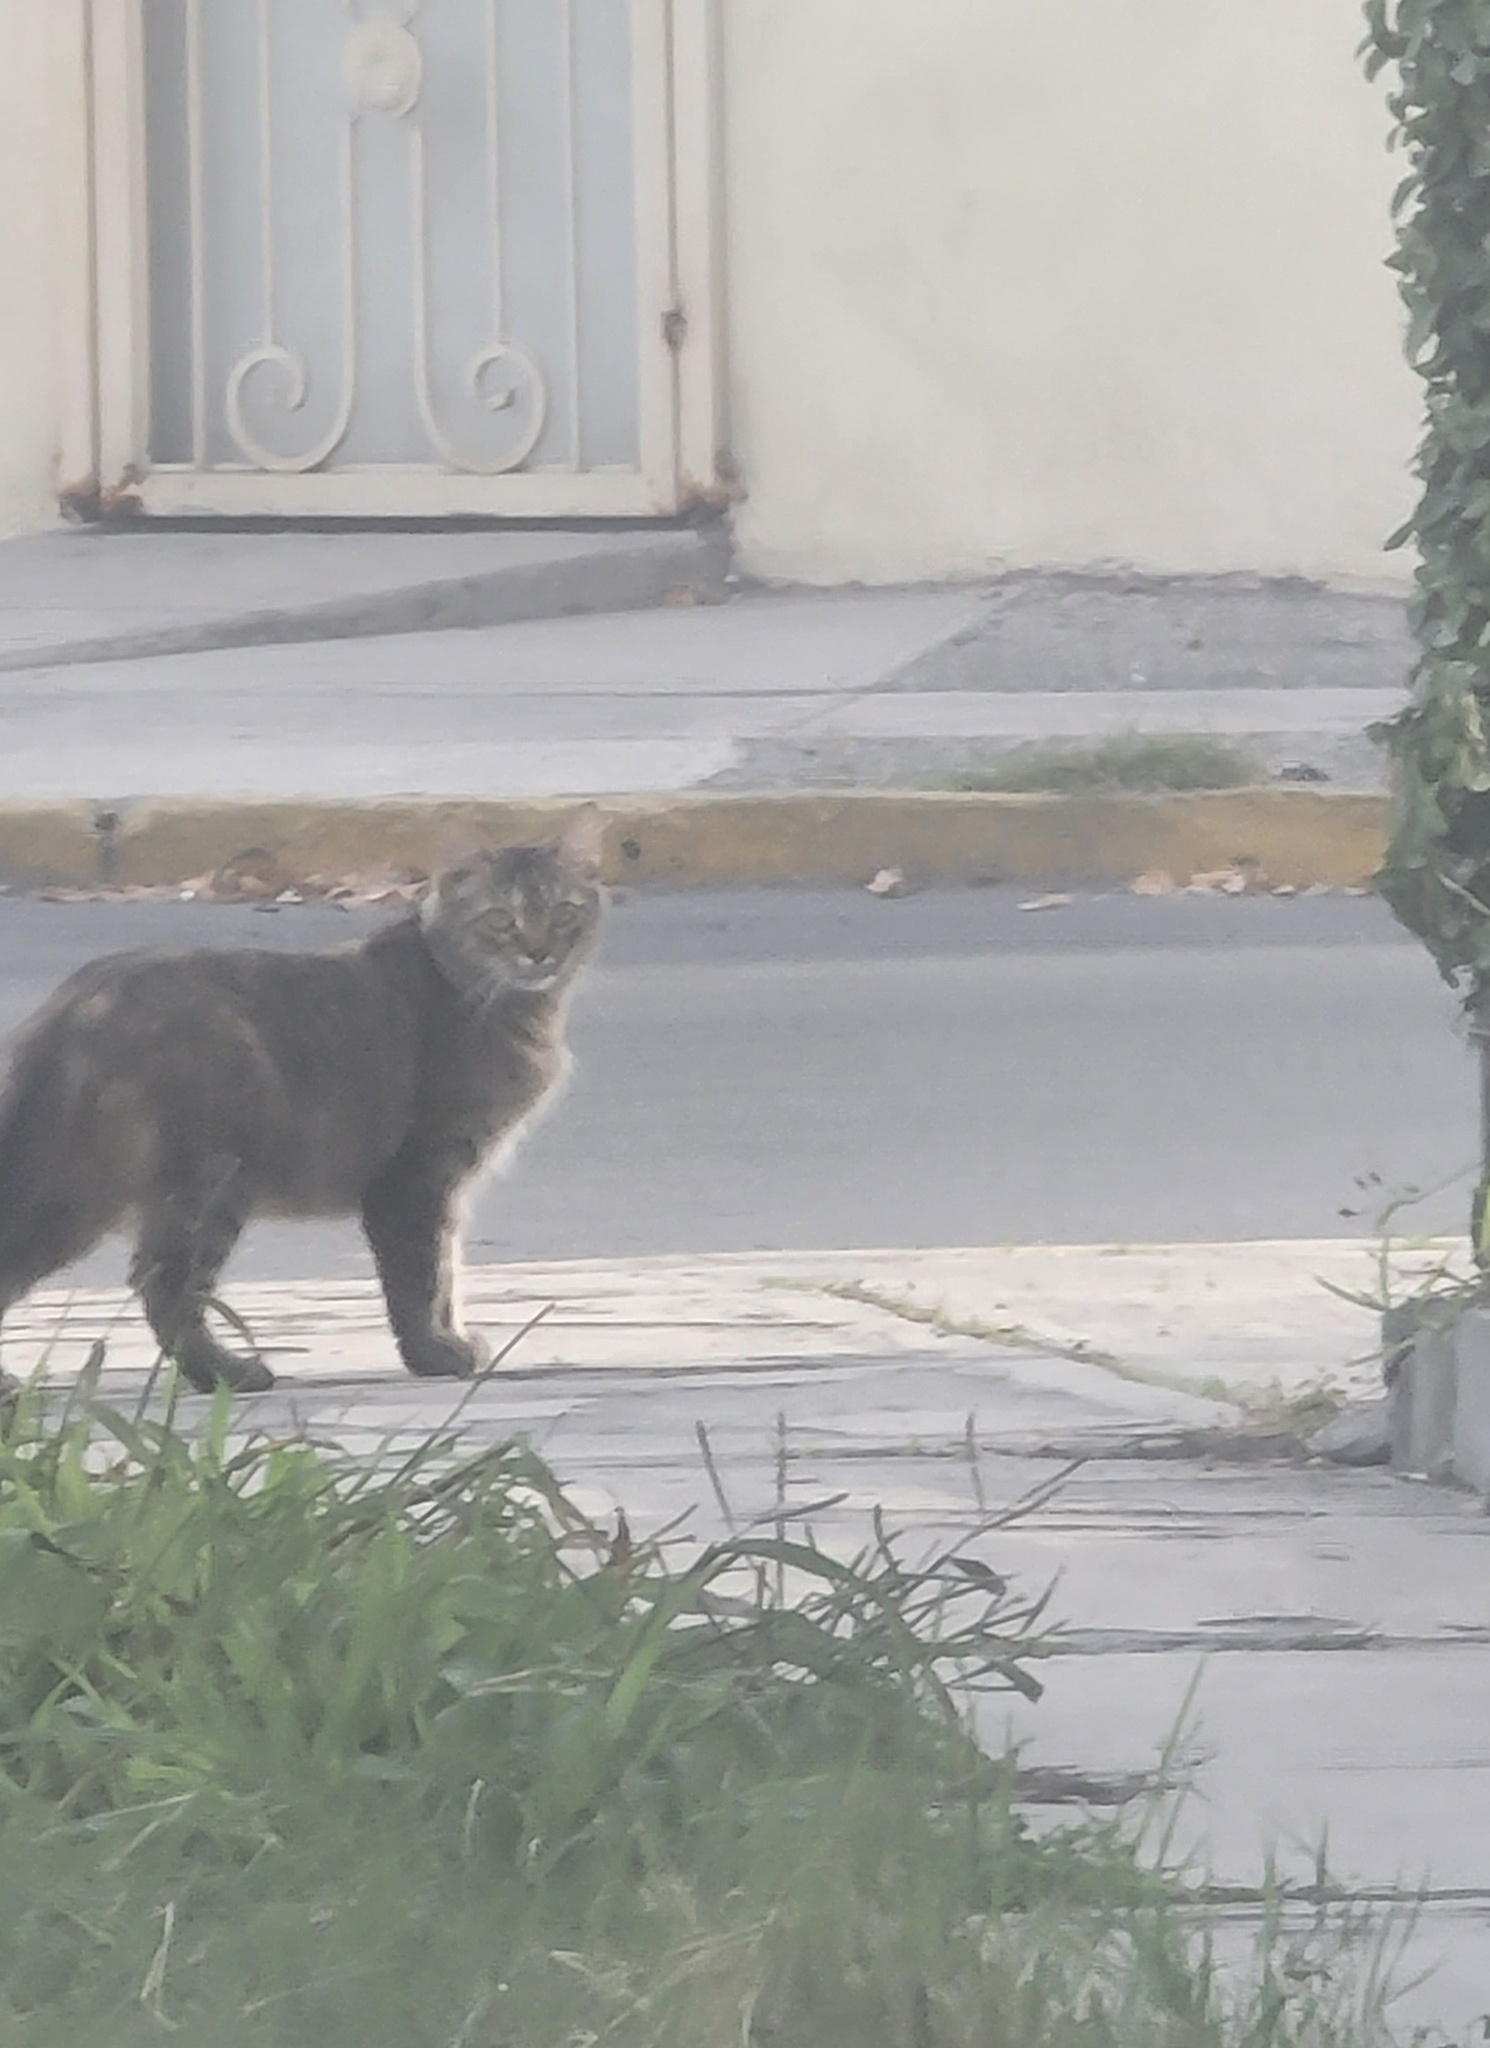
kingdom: Animalia
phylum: Chordata
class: Mammalia
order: Carnivora
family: Felidae
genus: Felis
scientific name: Felis catus
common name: Domestic cat
